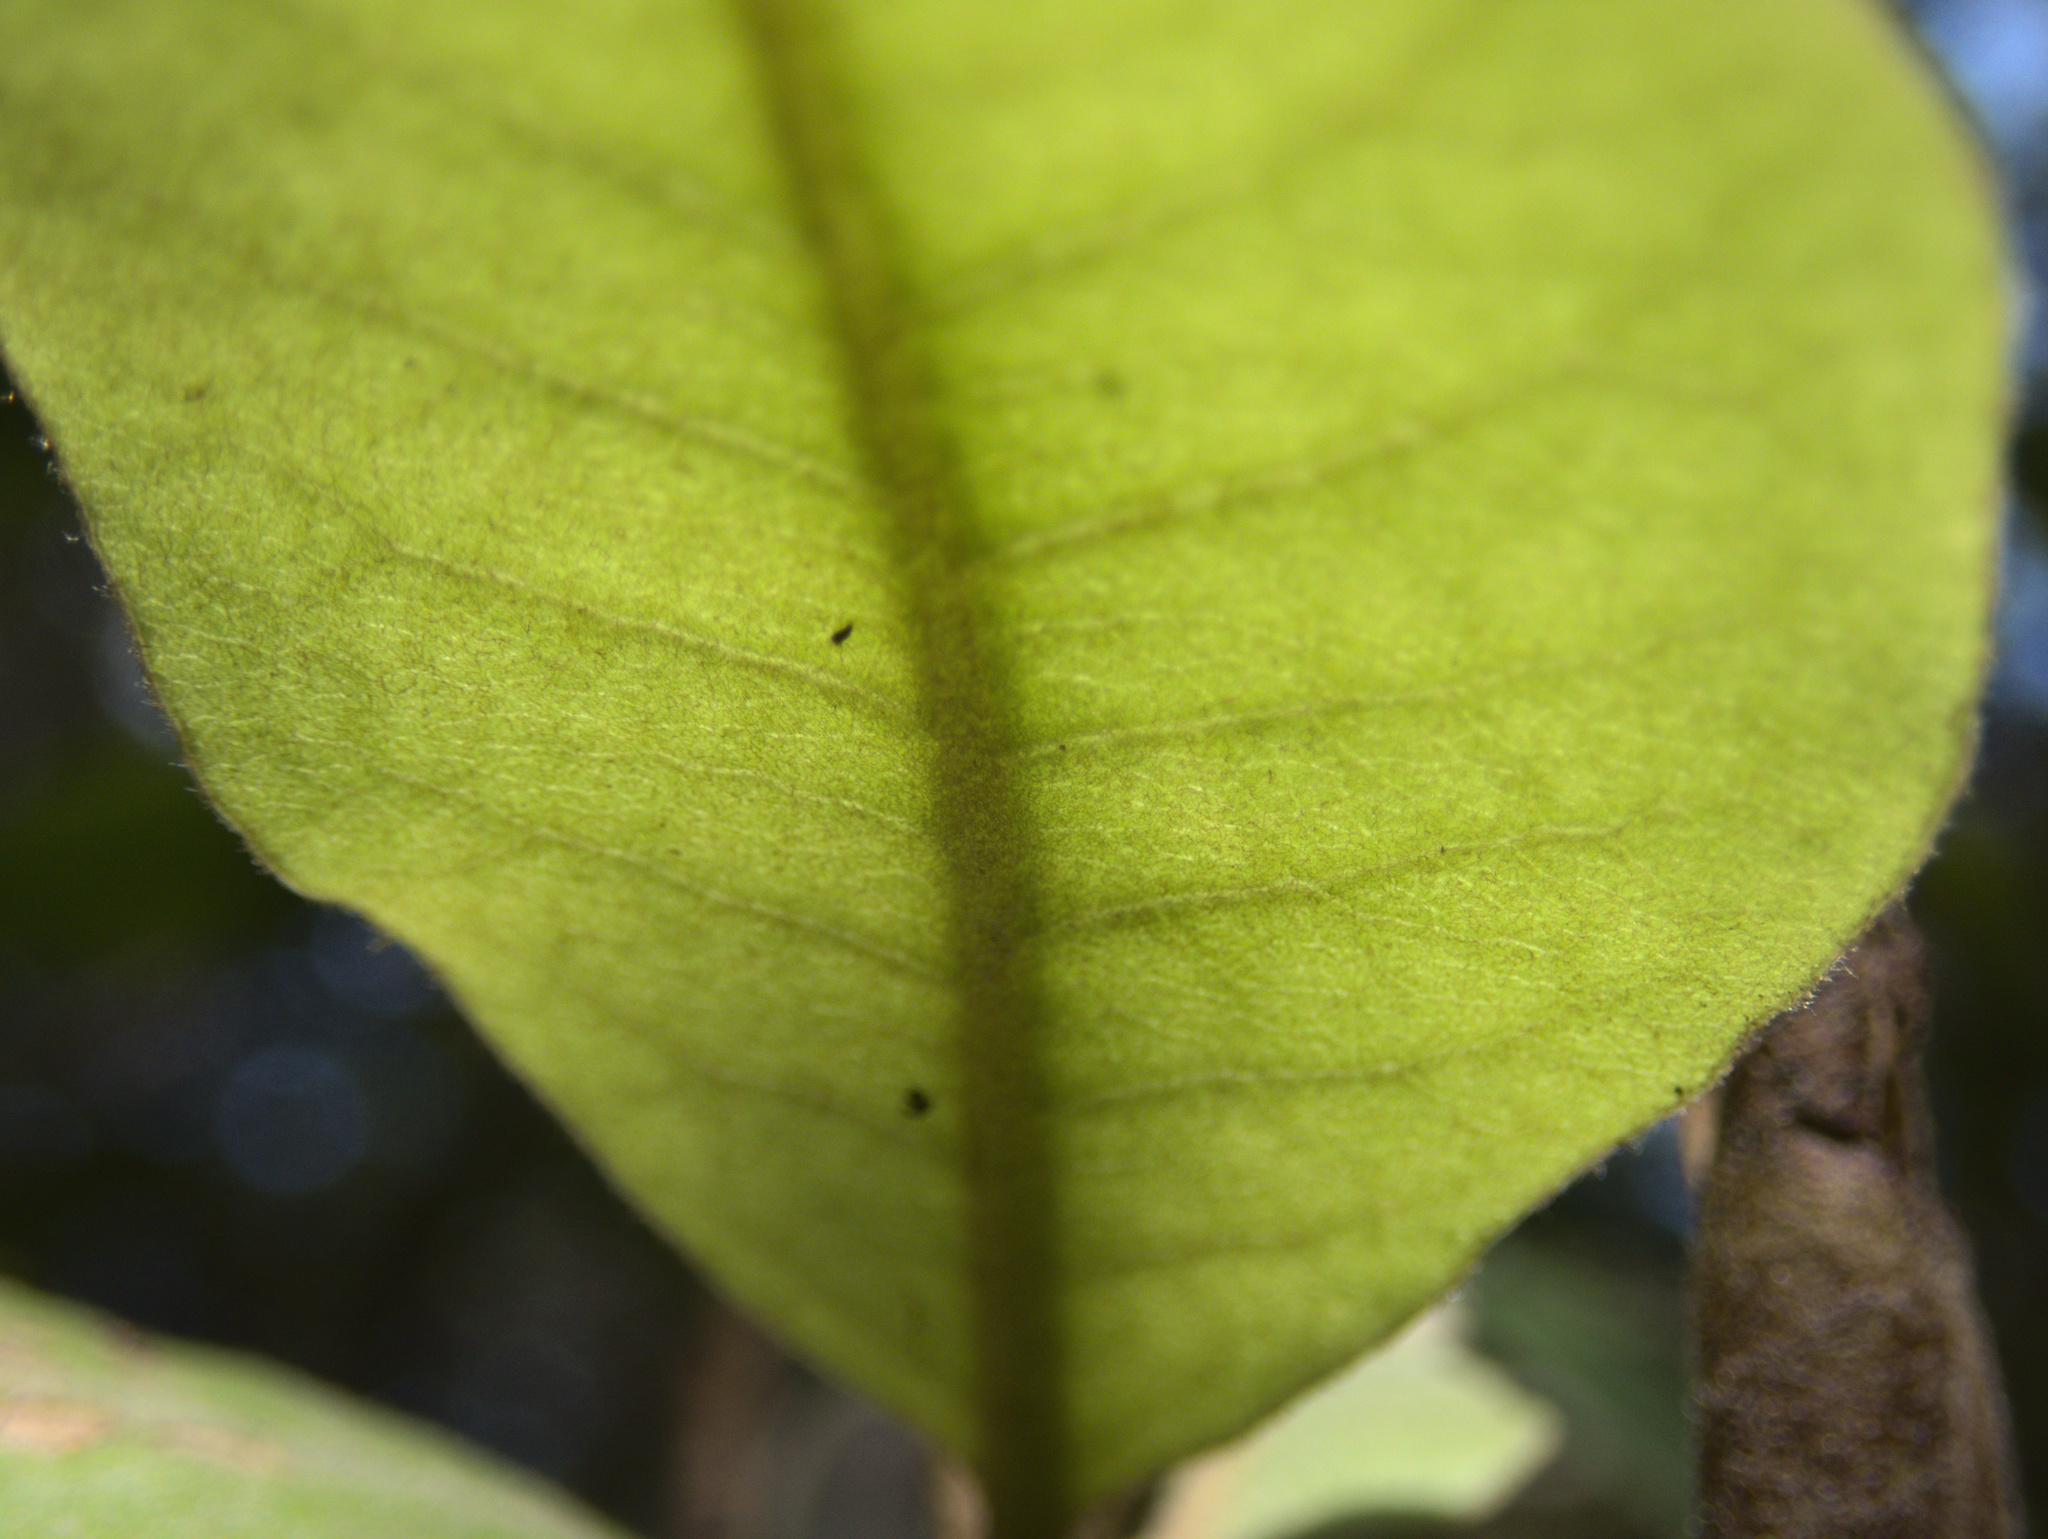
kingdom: Plantae
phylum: Tracheophyta
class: Magnoliopsida
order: Apiales
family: Pittosporaceae
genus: Pittosporum
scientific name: Pittosporum ellipticum
